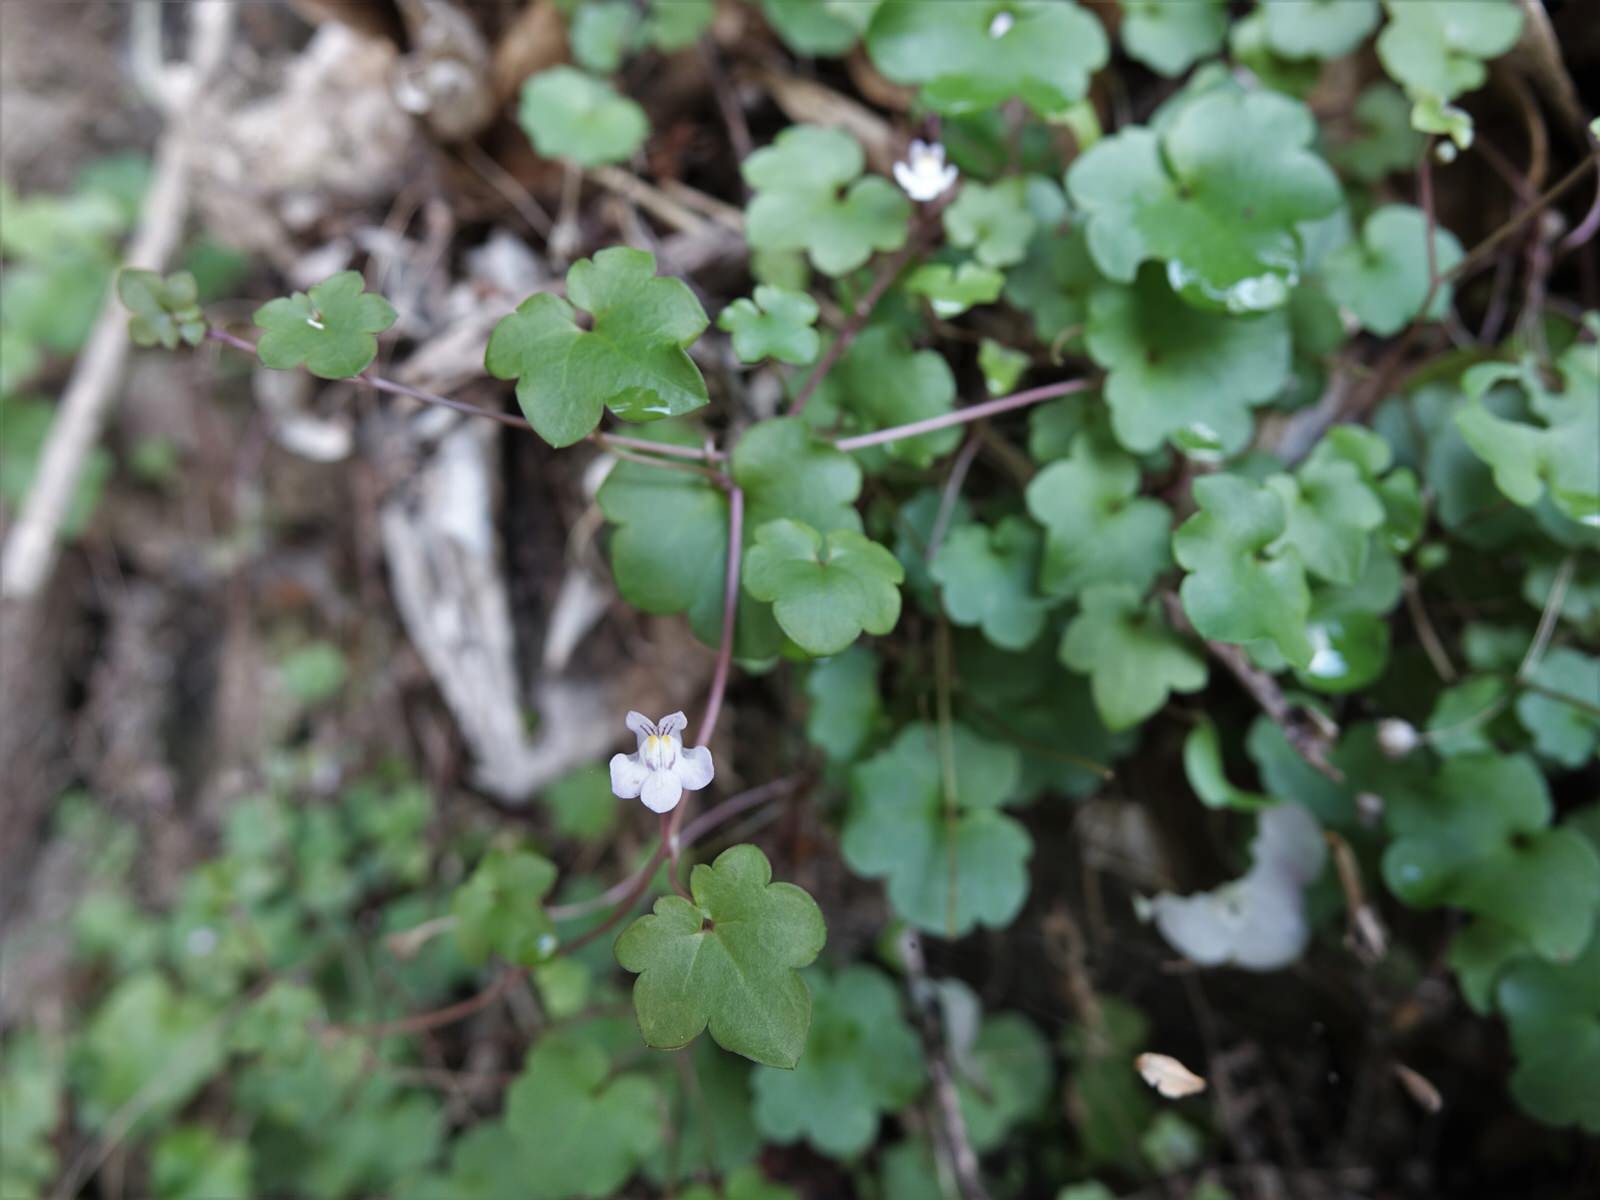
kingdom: Plantae
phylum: Tracheophyta
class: Magnoliopsida
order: Lamiales
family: Plantaginaceae
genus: Cymbalaria
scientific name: Cymbalaria muralis
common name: Ivy-leaved toadflax
